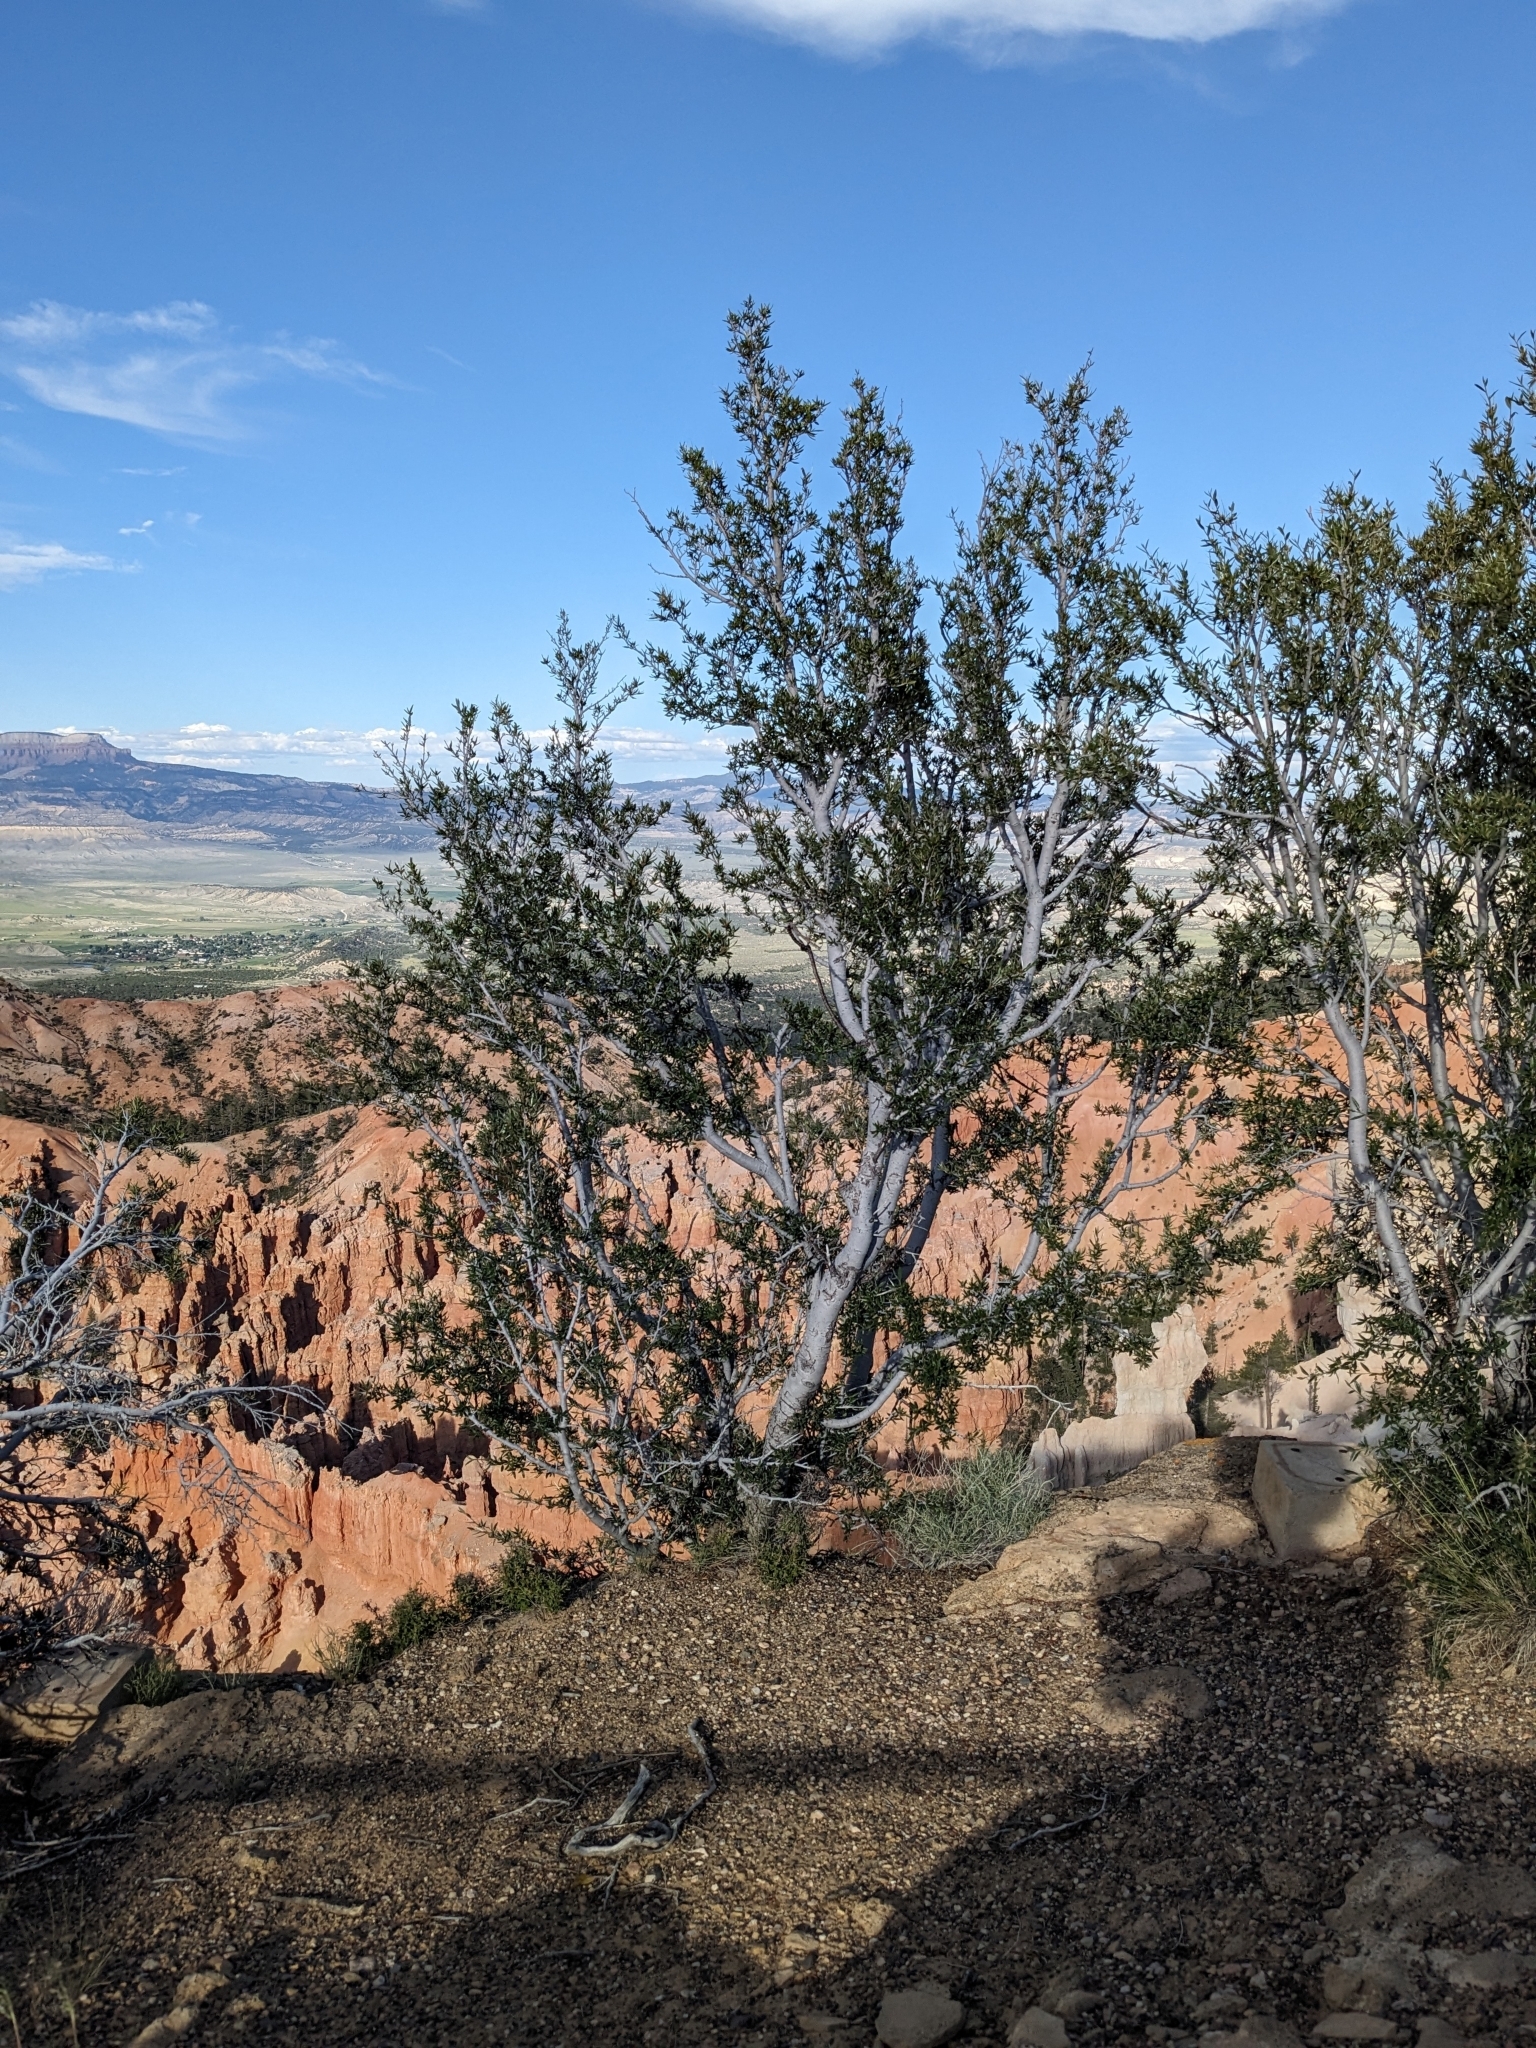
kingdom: Plantae
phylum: Tracheophyta
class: Magnoliopsida
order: Rosales
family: Rosaceae
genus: Cercocarpus
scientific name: Cercocarpus ledifolius
